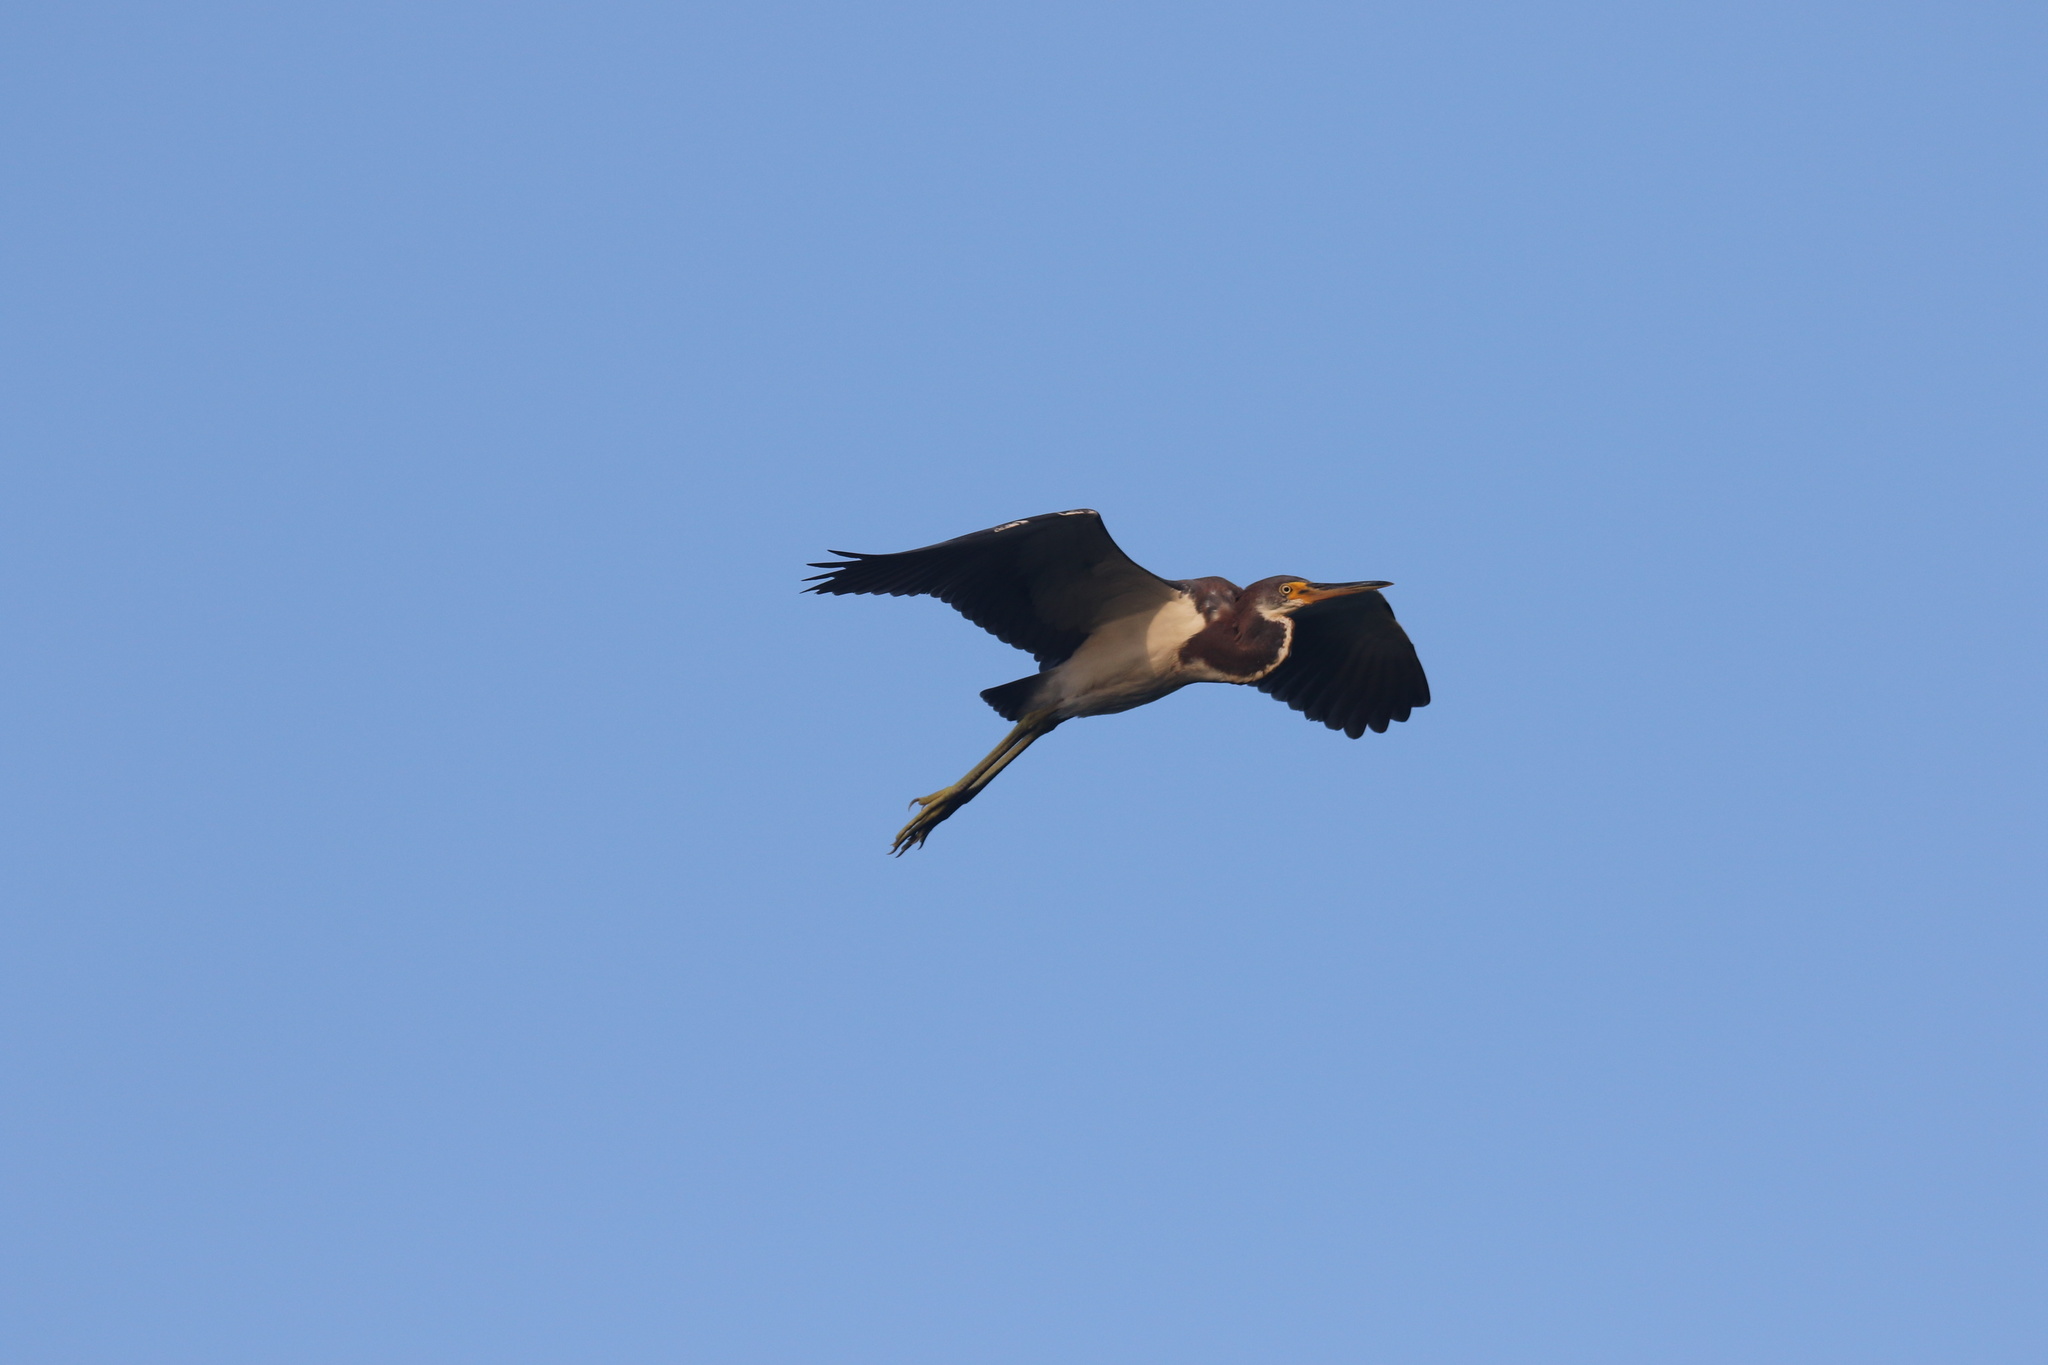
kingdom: Animalia
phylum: Chordata
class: Aves
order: Pelecaniformes
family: Ardeidae
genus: Egretta
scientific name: Egretta tricolor
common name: Tricolored heron
